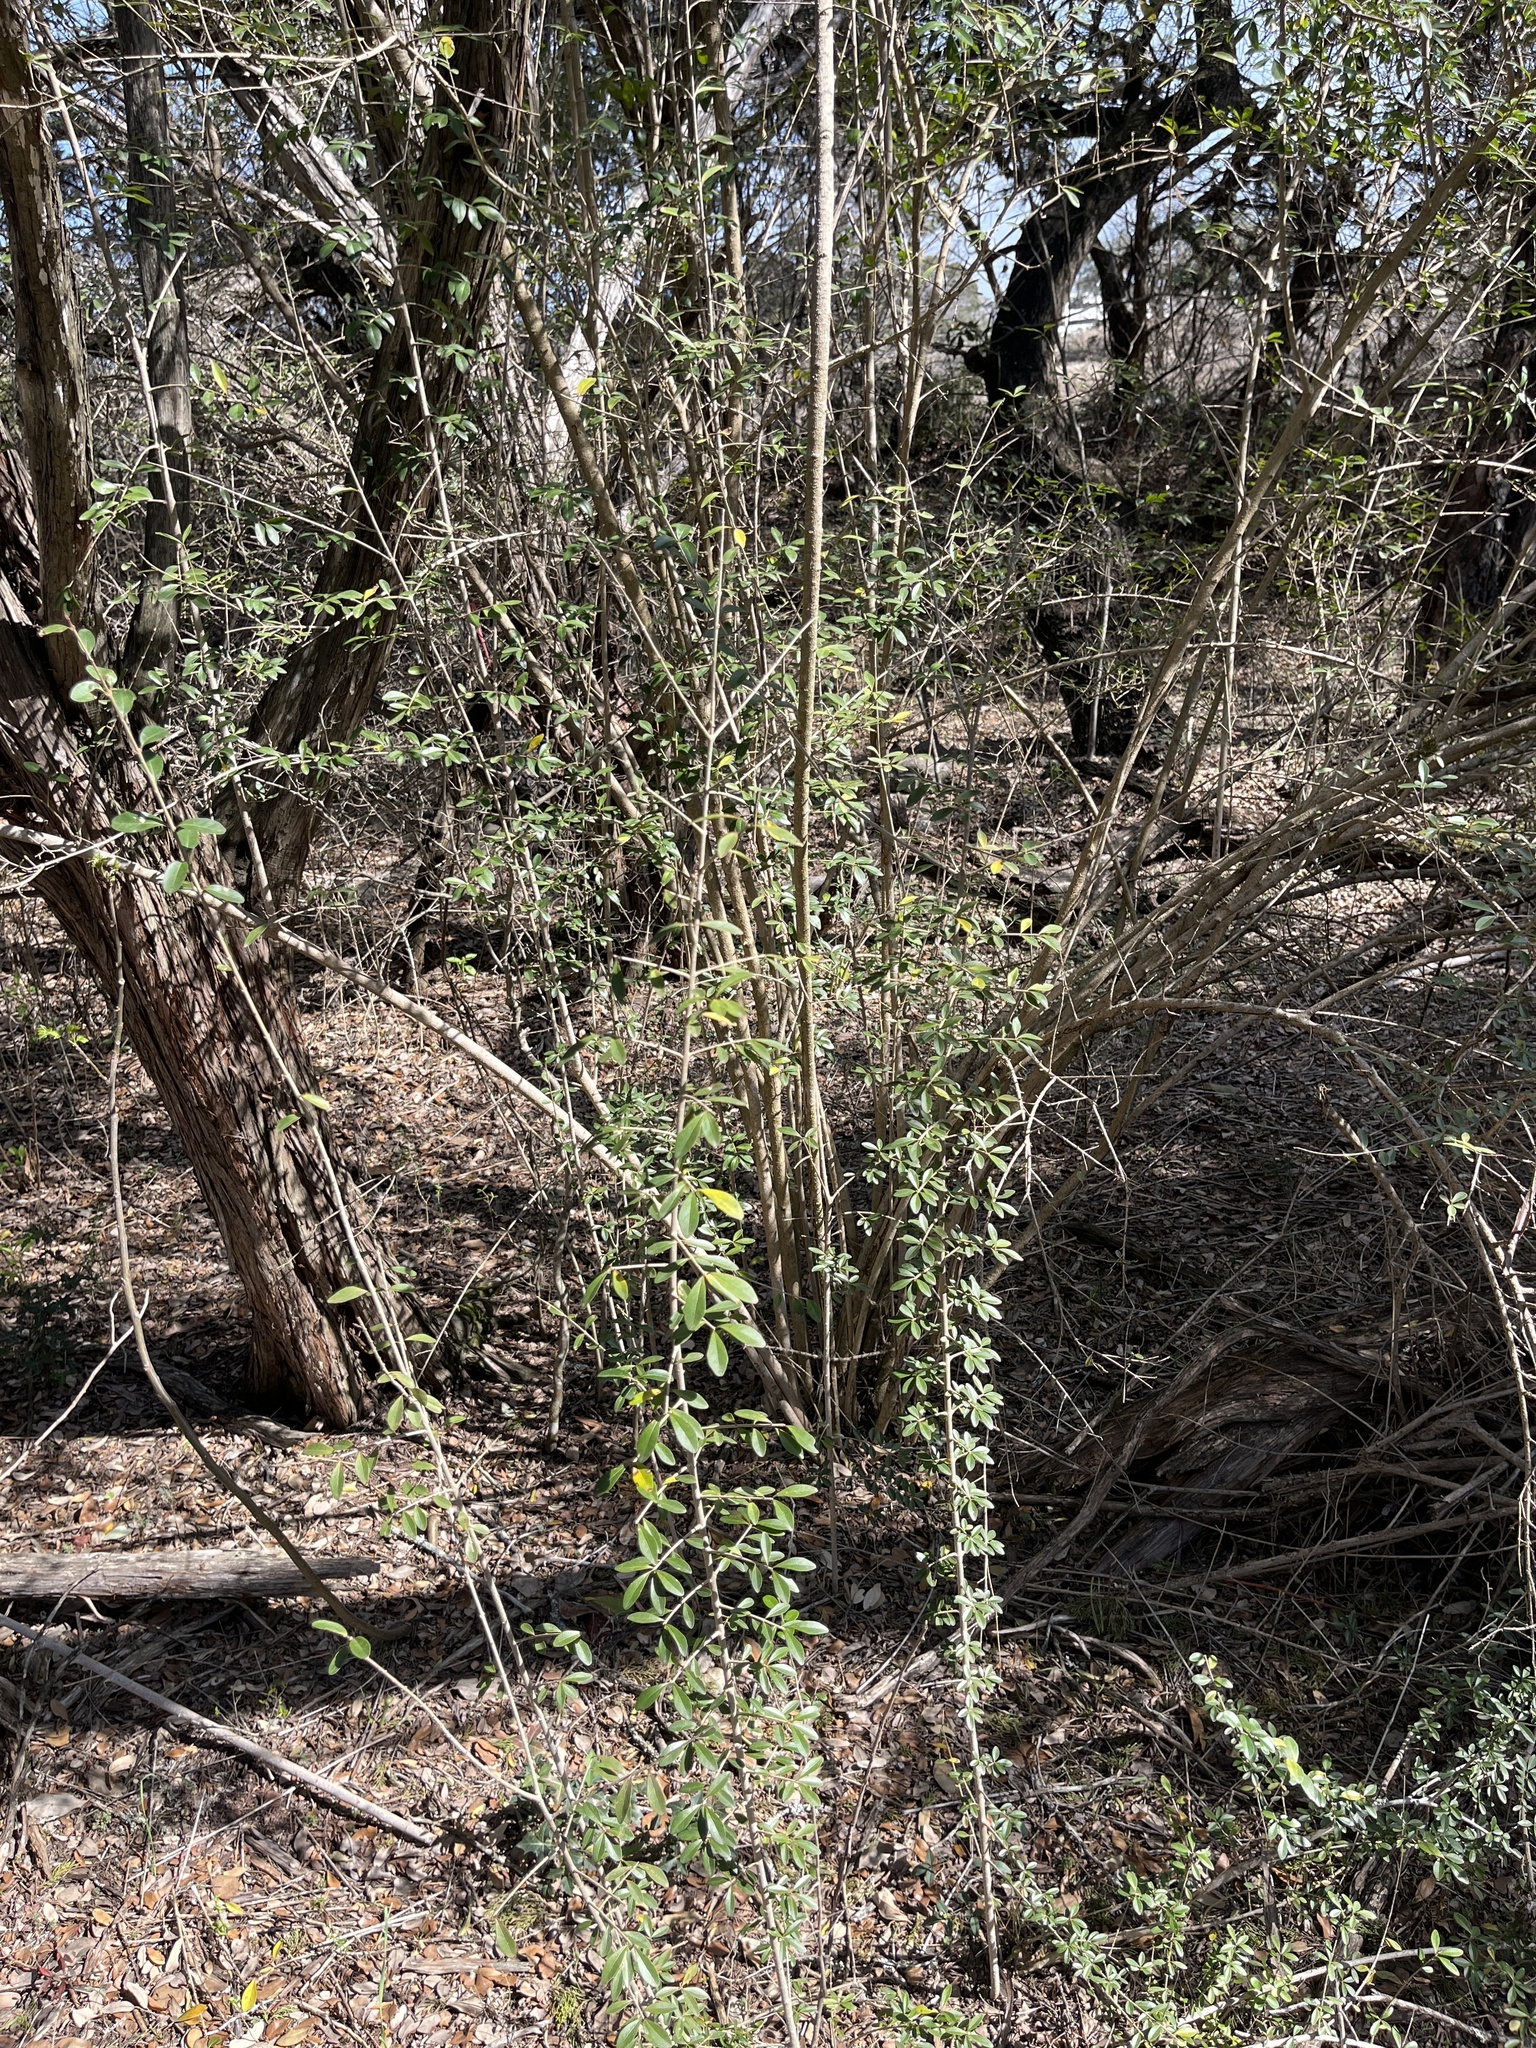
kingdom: Plantae
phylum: Tracheophyta
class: Magnoliopsida
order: Lamiales
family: Oleaceae
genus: Ligustrum
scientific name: Ligustrum quihoui
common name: Waxyleaf privet
